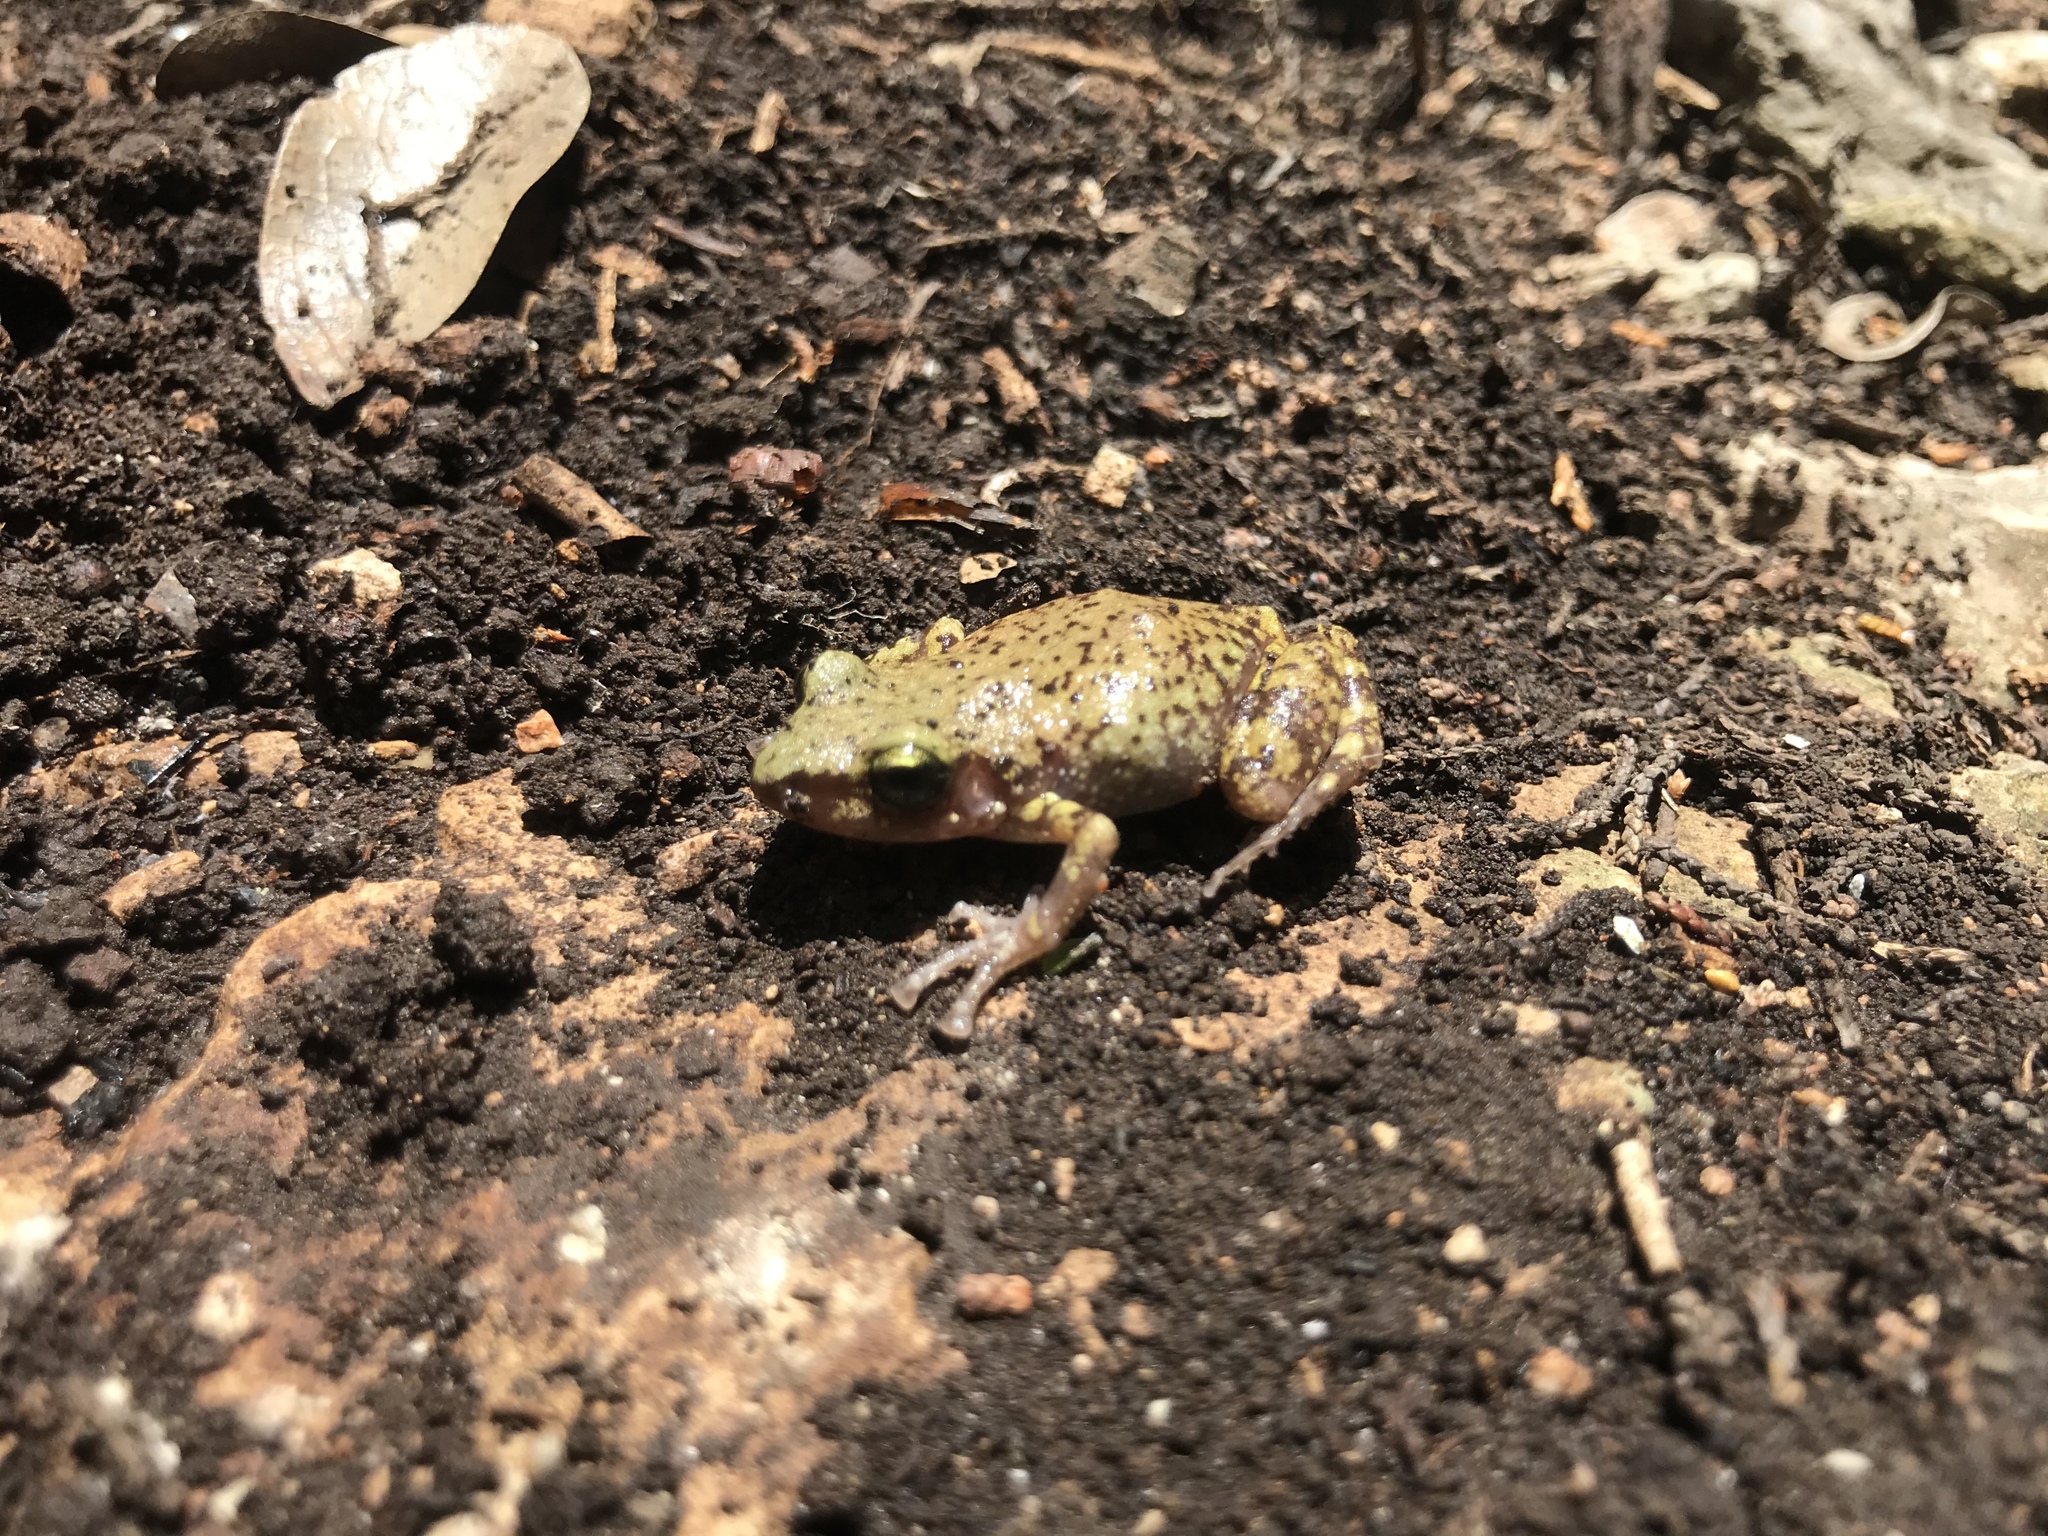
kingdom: Animalia
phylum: Chordata
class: Amphibia
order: Anura
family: Eleutherodactylidae
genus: Eleutherodactylus
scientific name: Eleutherodactylus marnockii
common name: Cliff chirping frog
